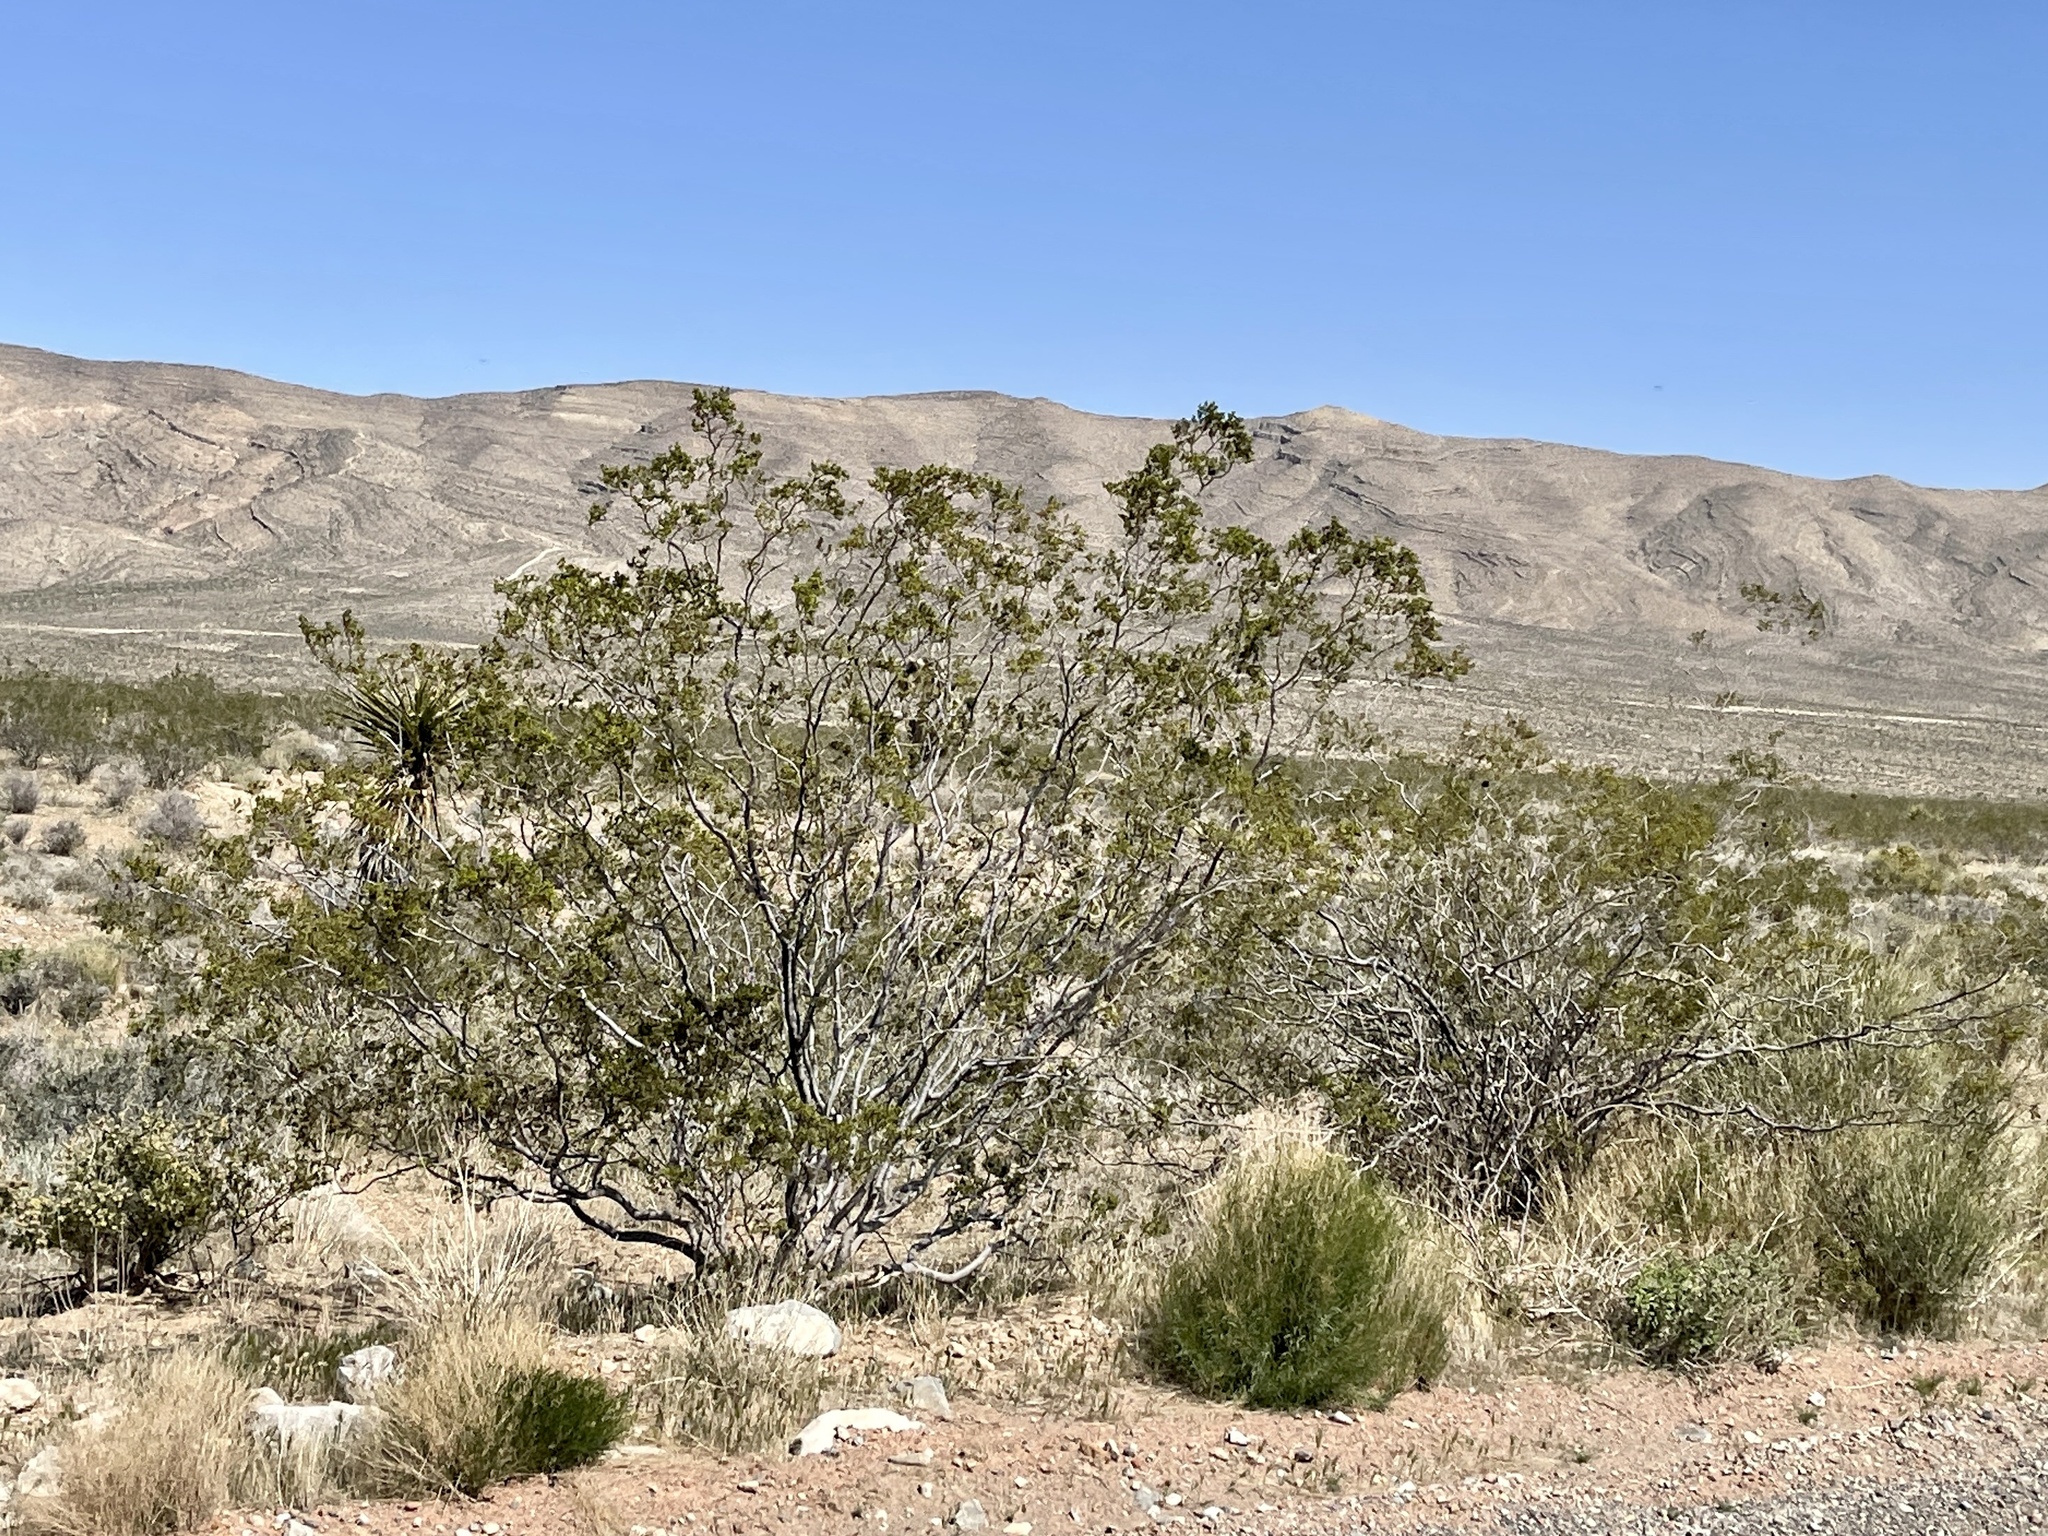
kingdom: Plantae
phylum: Tracheophyta
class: Magnoliopsida
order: Zygophyllales
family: Zygophyllaceae
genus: Larrea
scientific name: Larrea tridentata
